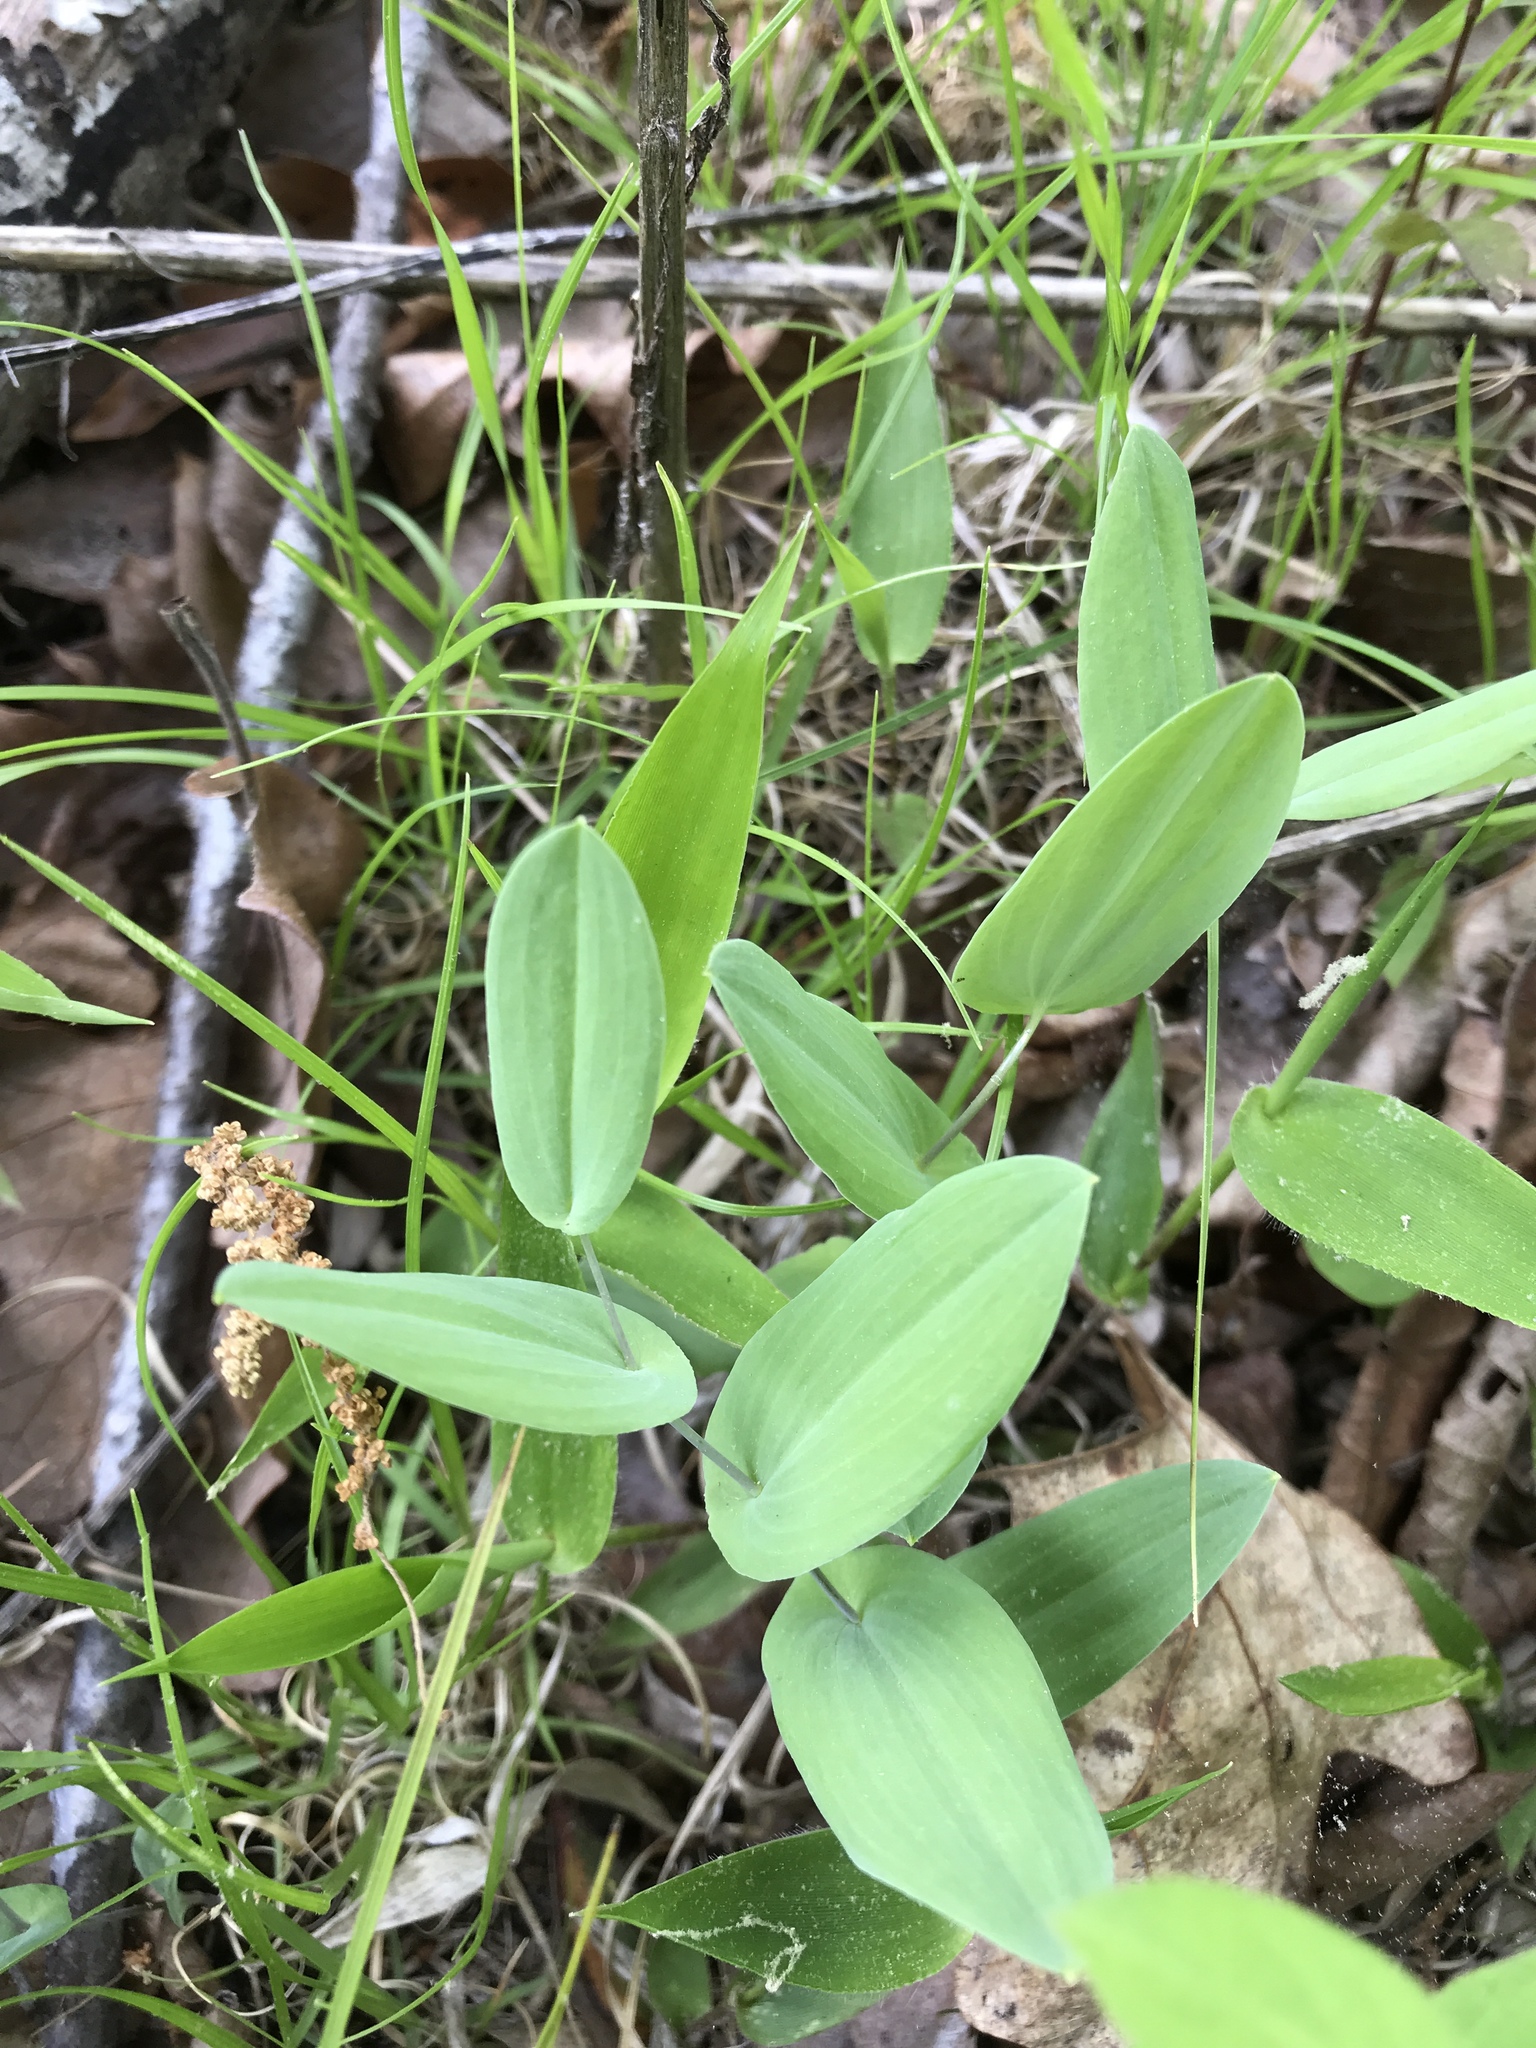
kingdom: Plantae
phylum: Tracheophyta
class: Liliopsida
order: Liliales
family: Colchicaceae
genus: Uvularia
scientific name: Uvularia perfoliata
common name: Perfoliate bellwort
